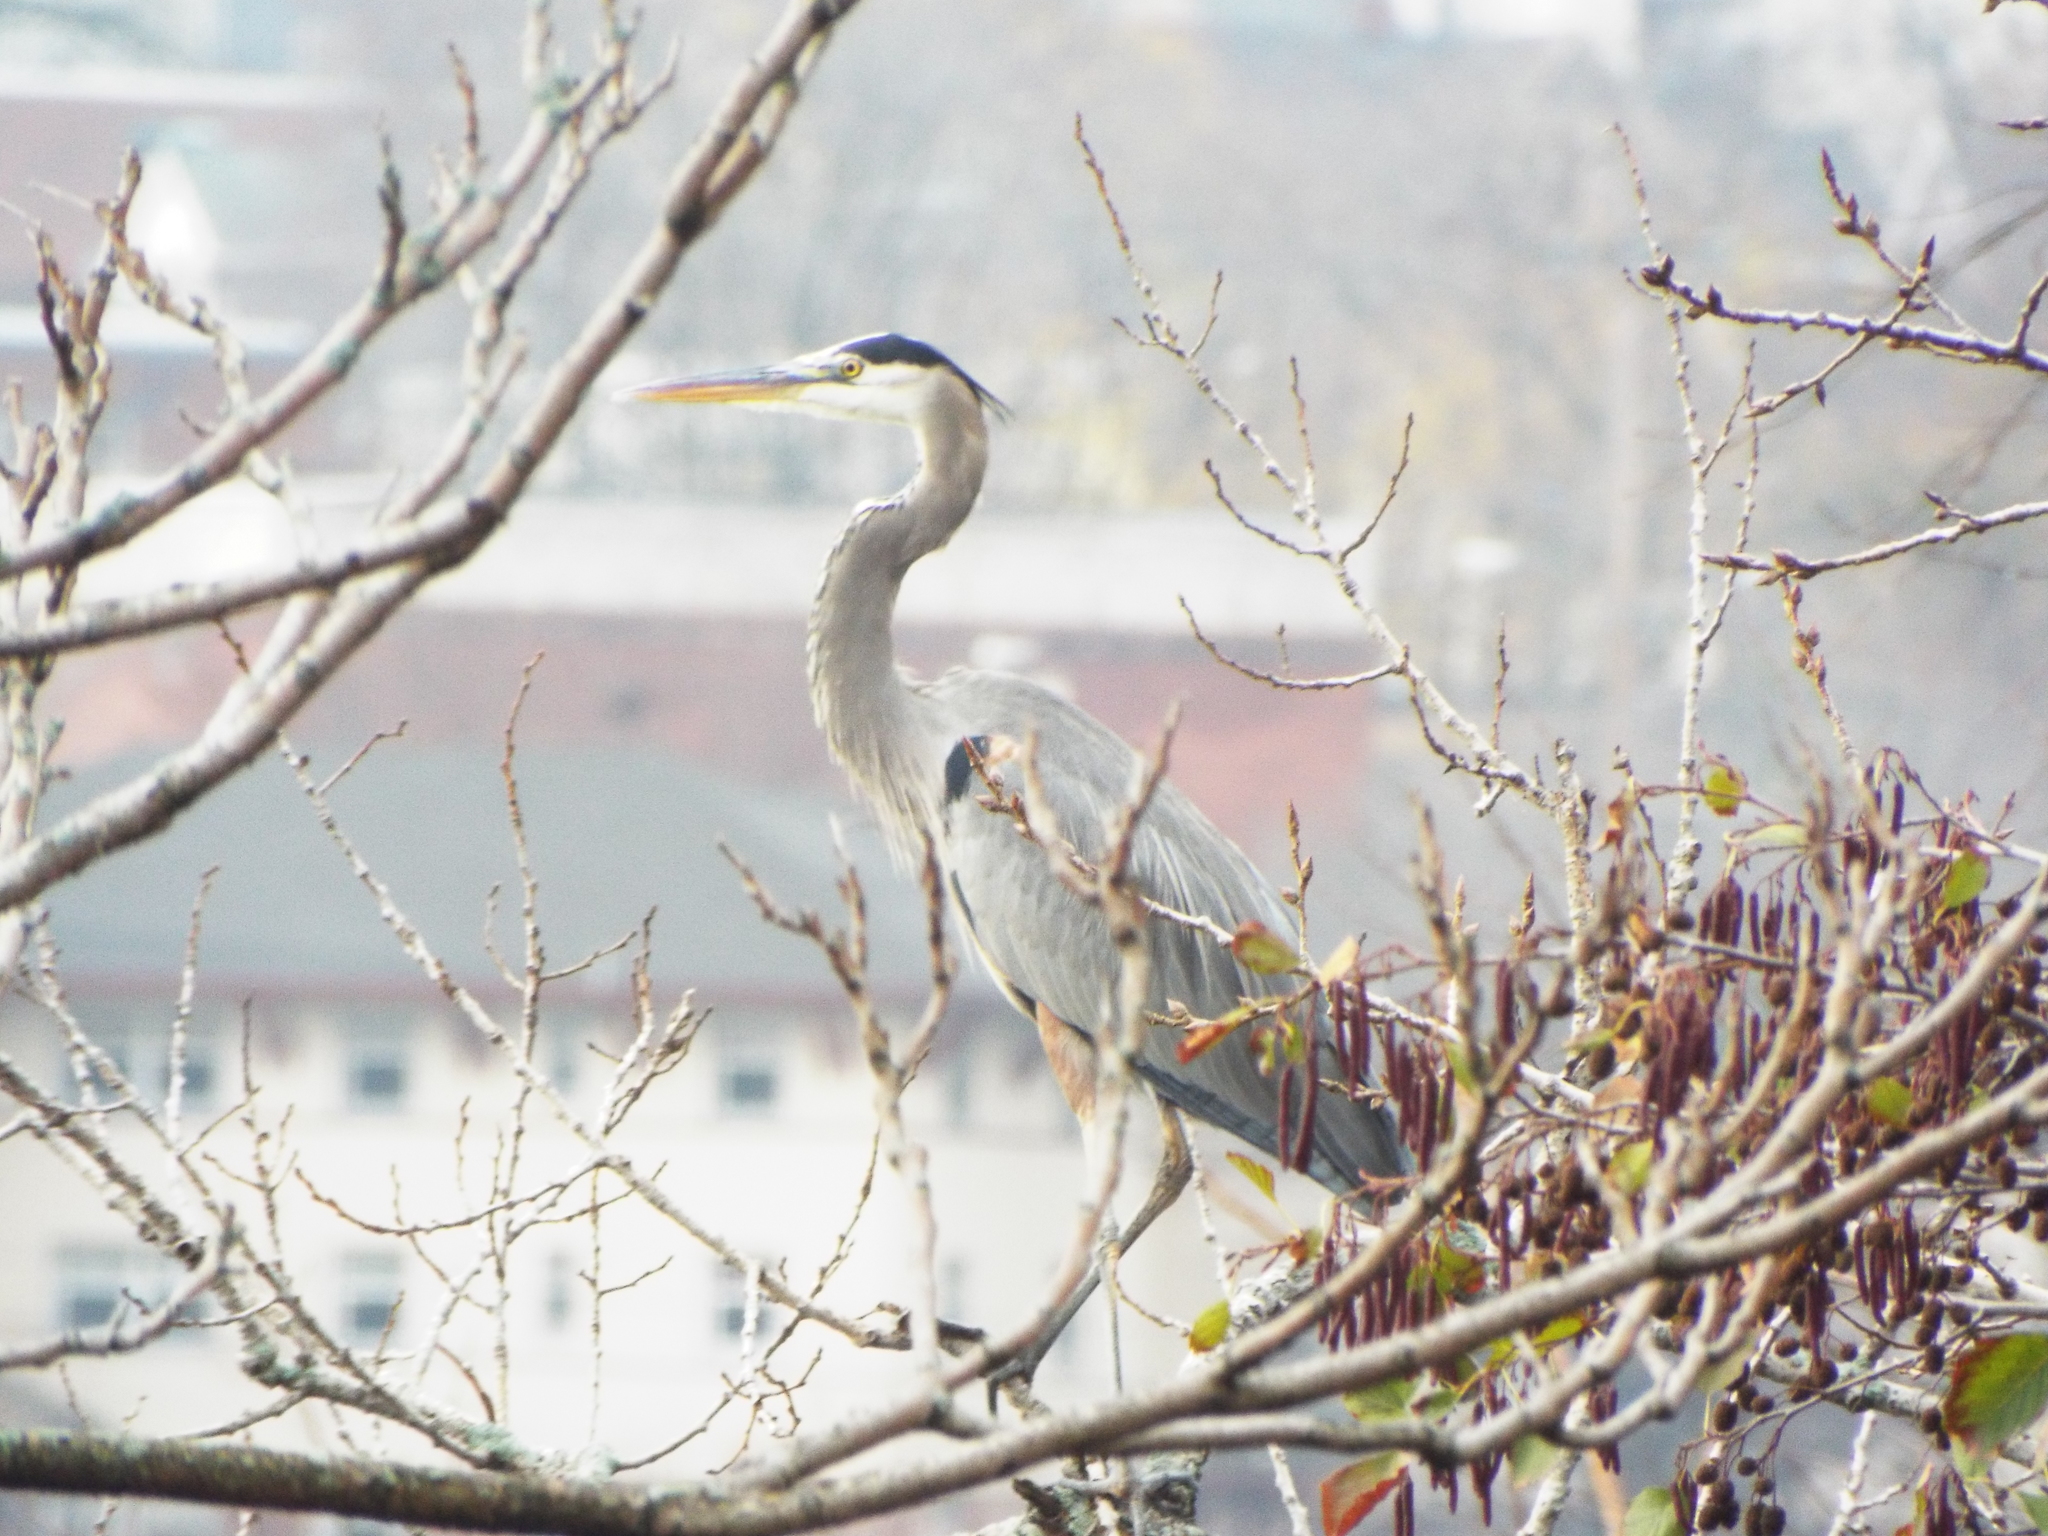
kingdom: Animalia
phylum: Chordata
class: Aves
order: Pelecaniformes
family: Ardeidae
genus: Ardea
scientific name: Ardea herodias
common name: Great blue heron
